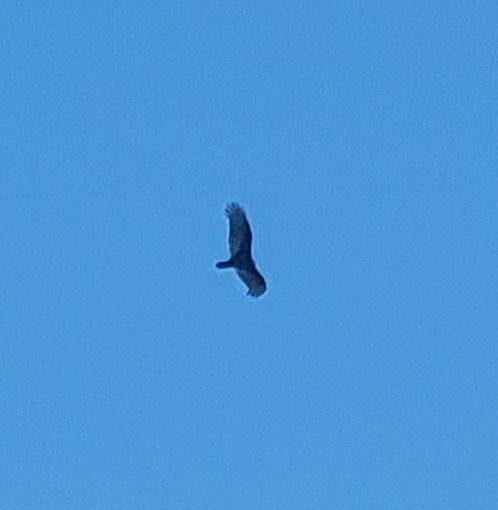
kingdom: Animalia
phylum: Chordata
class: Aves
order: Accipitriformes
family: Cathartidae
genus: Cathartes
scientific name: Cathartes aura
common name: Turkey vulture
